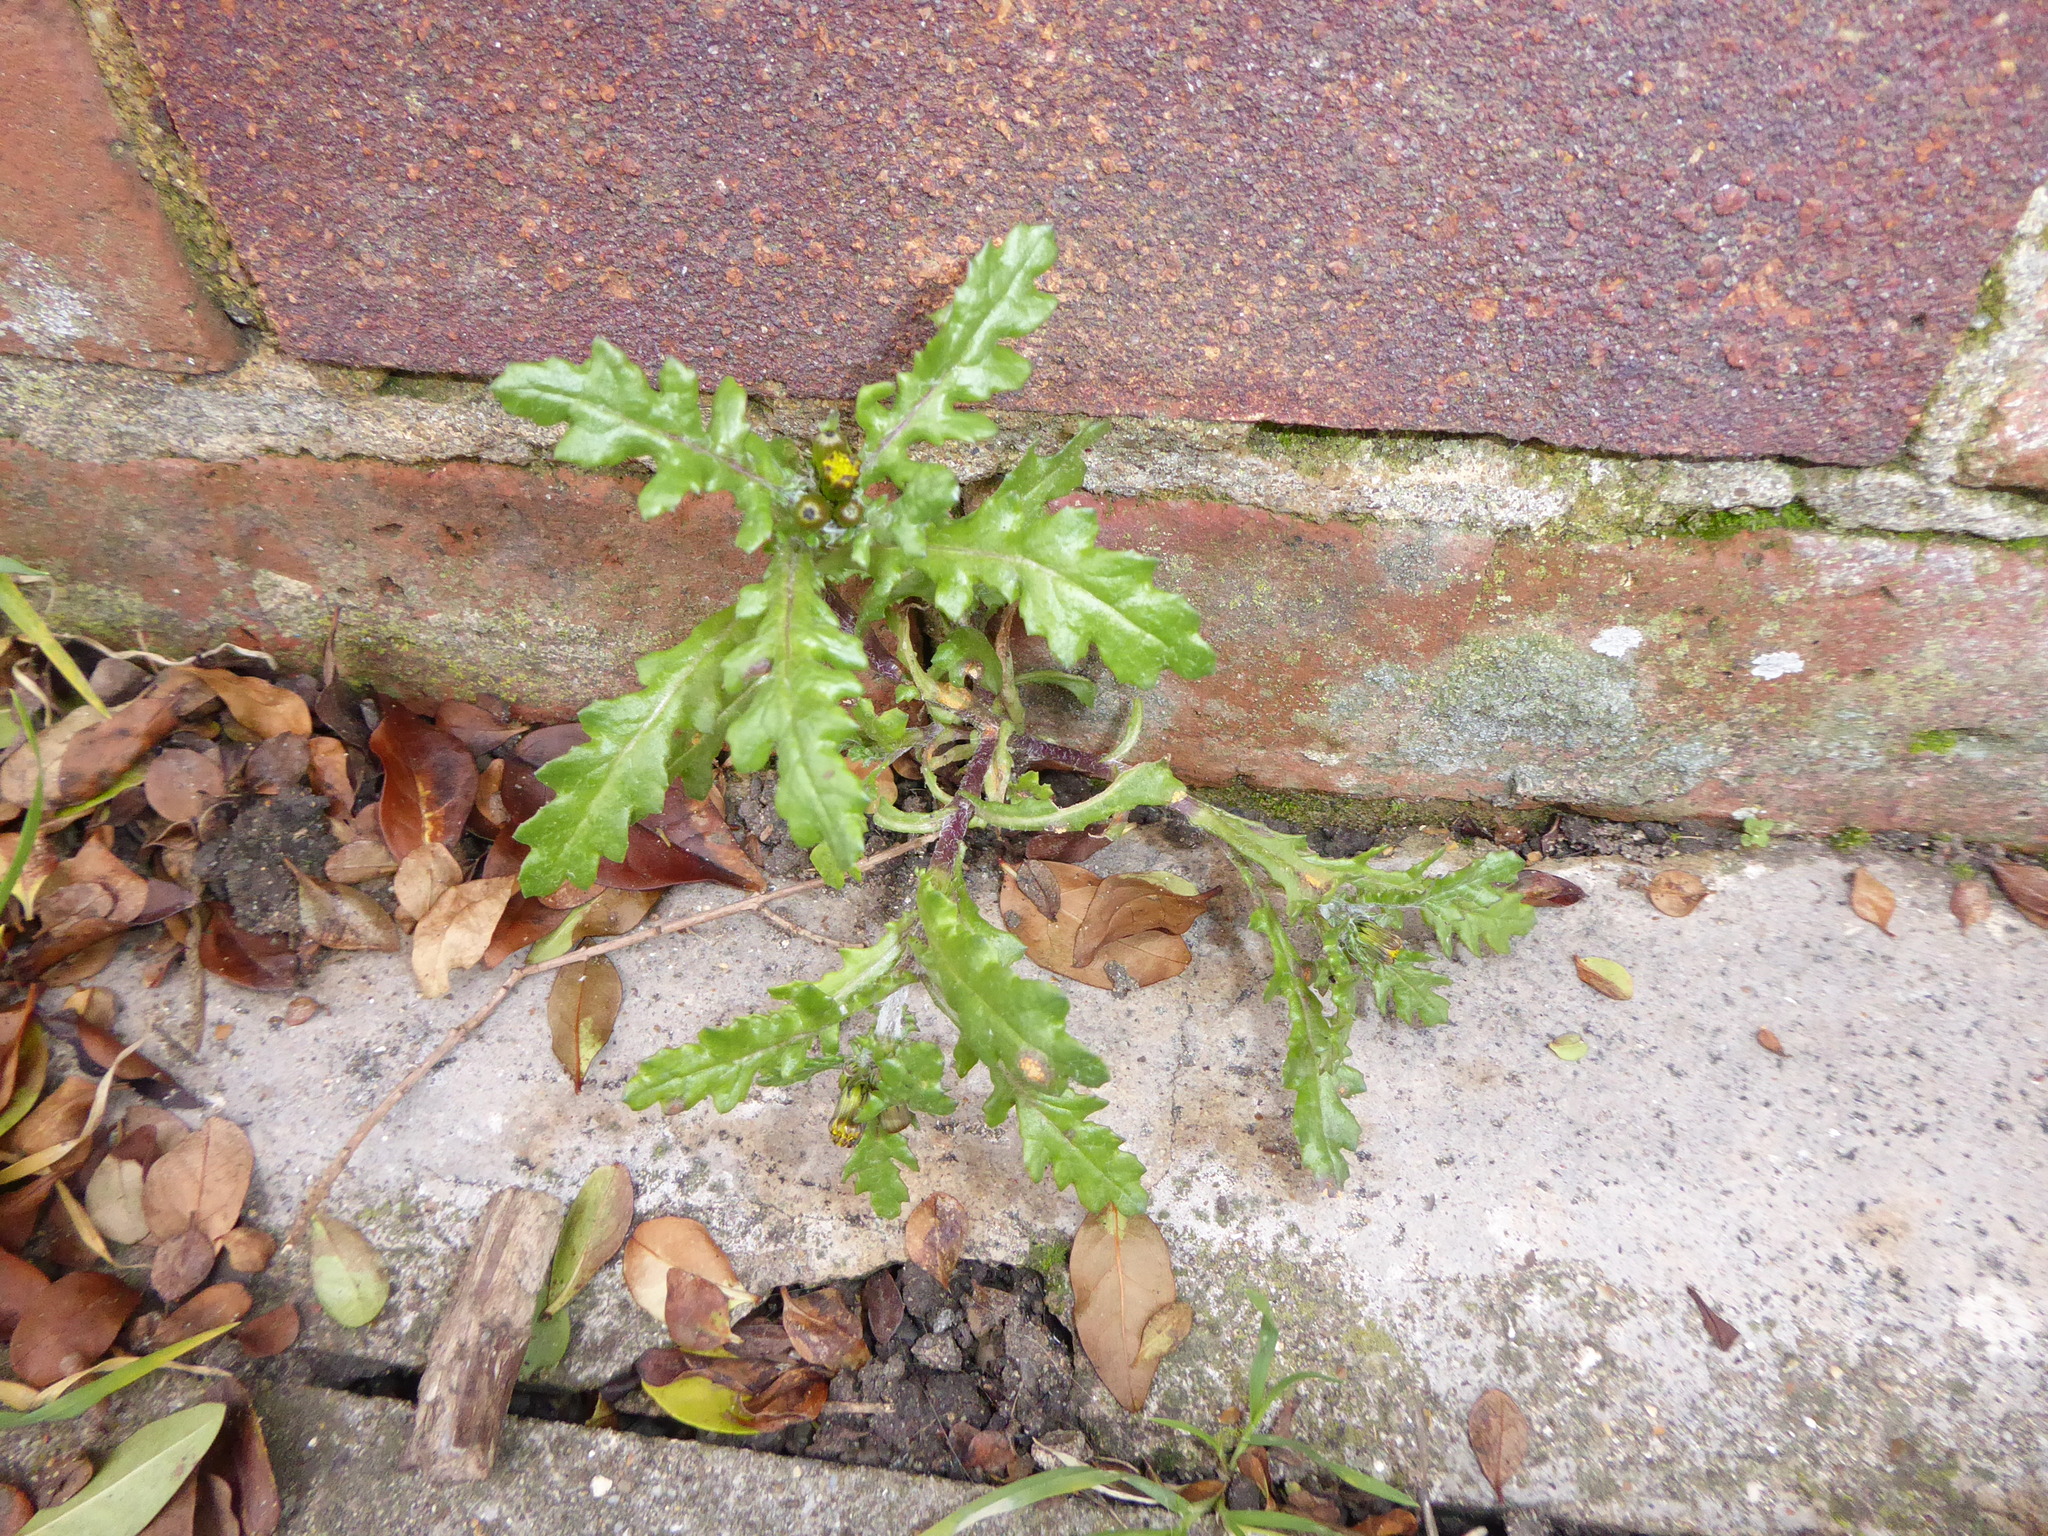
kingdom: Plantae
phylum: Tracheophyta
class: Magnoliopsida
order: Asterales
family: Asteraceae
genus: Senecio
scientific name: Senecio vulgaris
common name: Old-man-in-the-spring
